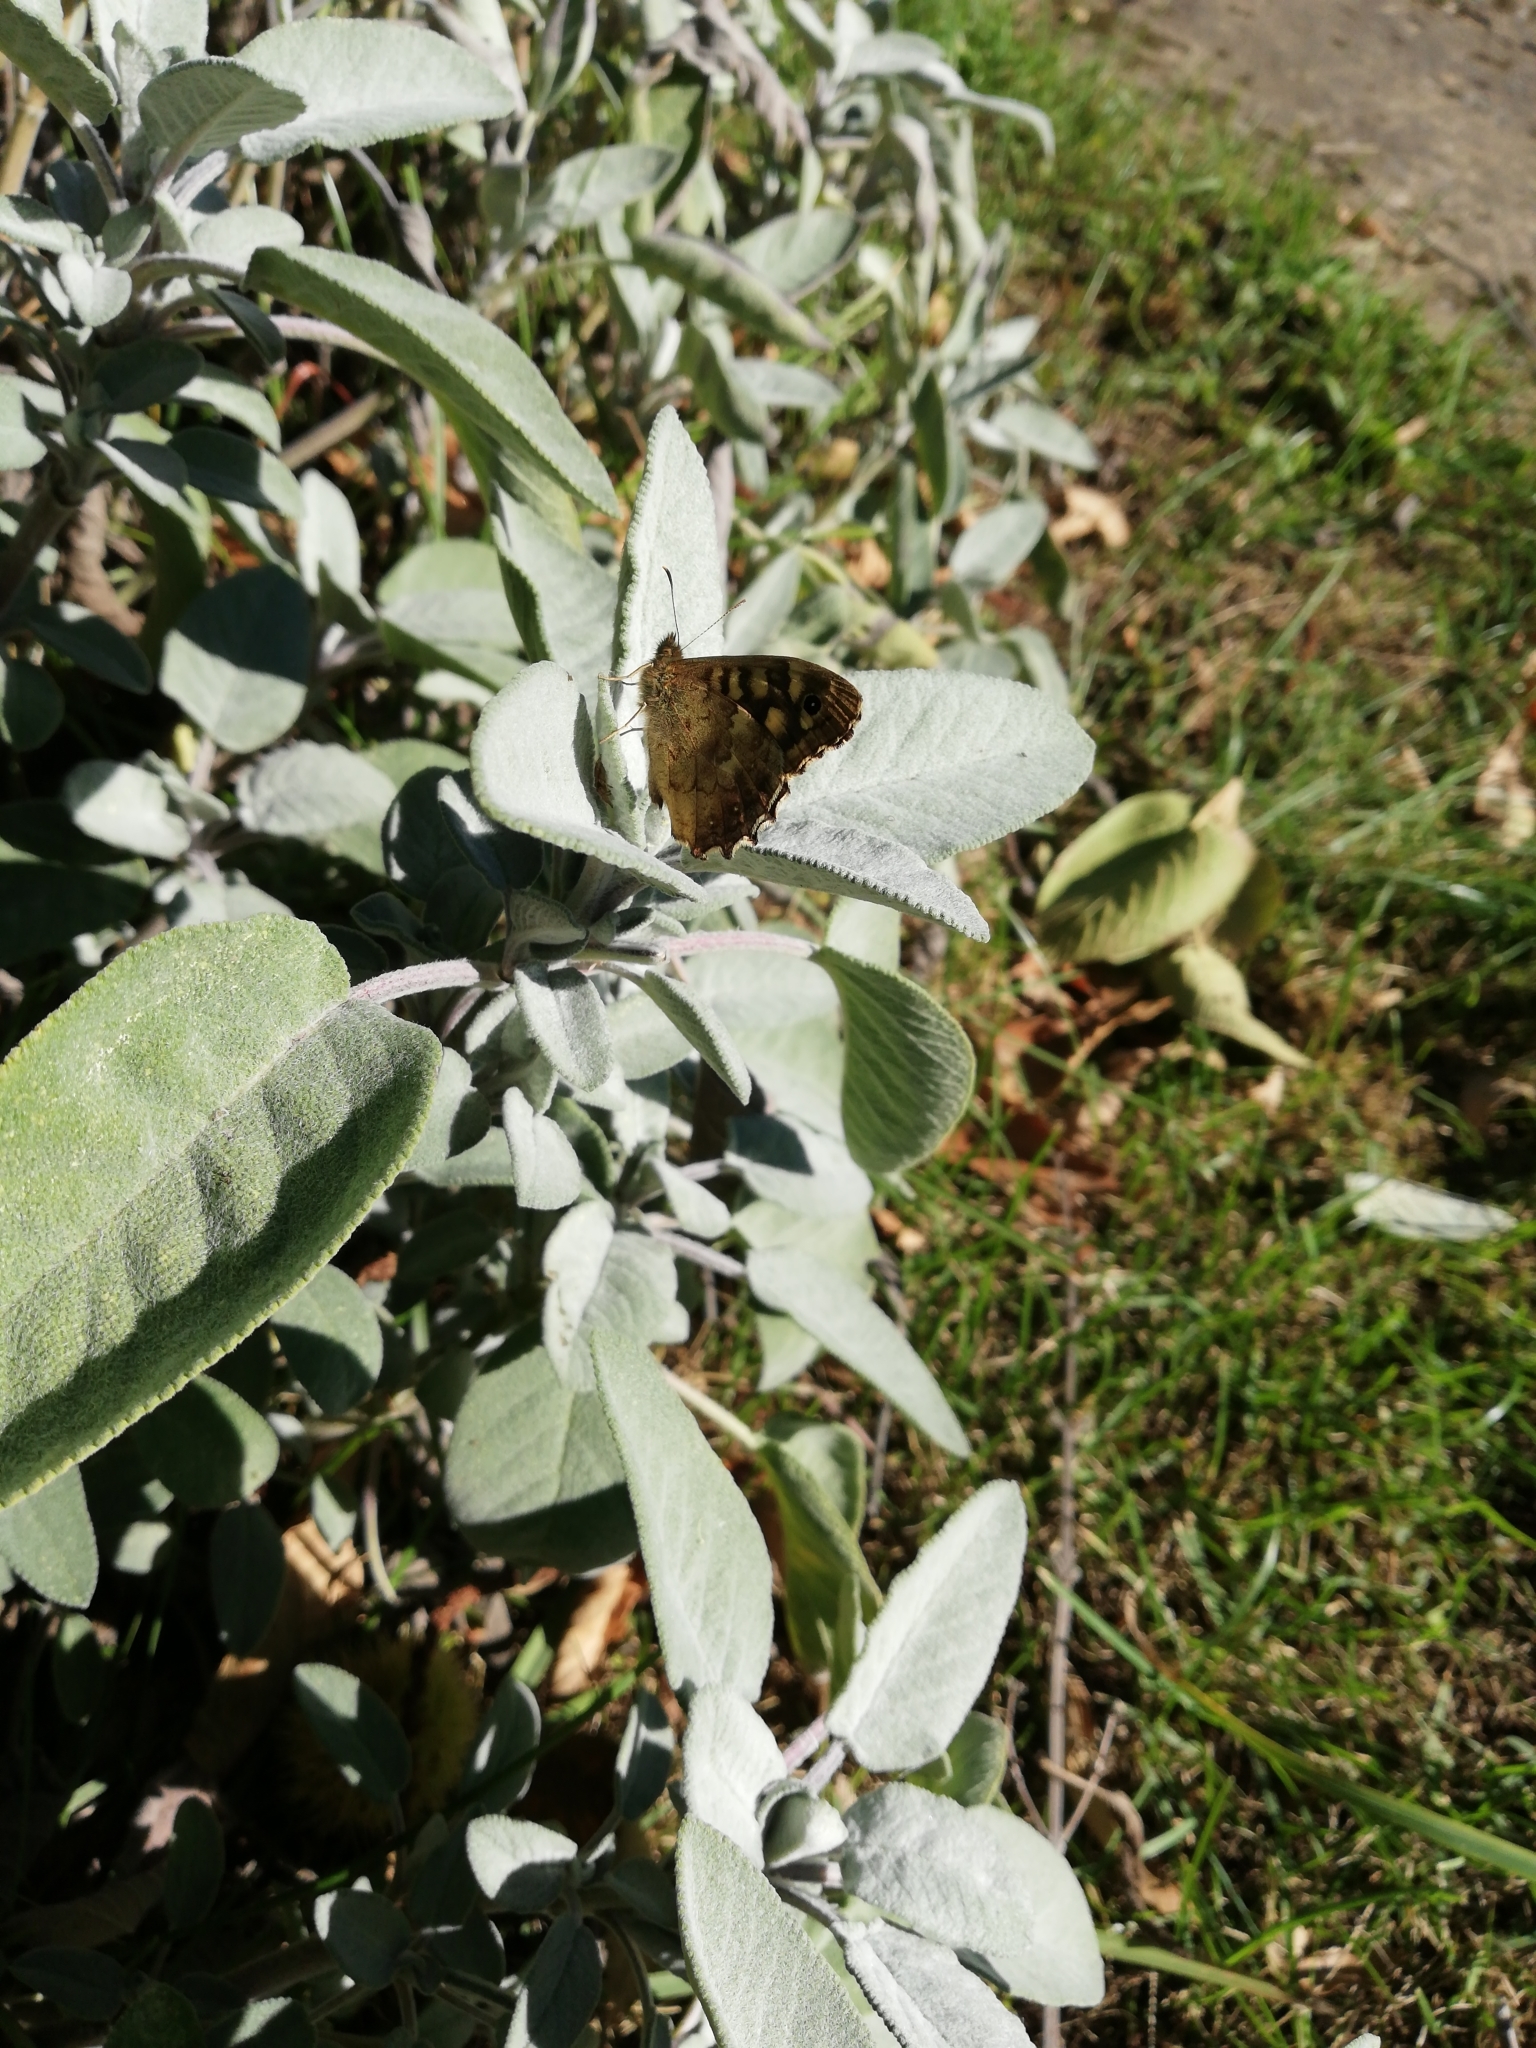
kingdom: Animalia
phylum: Arthropoda
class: Insecta
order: Lepidoptera
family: Nymphalidae
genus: Pararge
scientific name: Pararge aegeria
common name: Speckled wood
